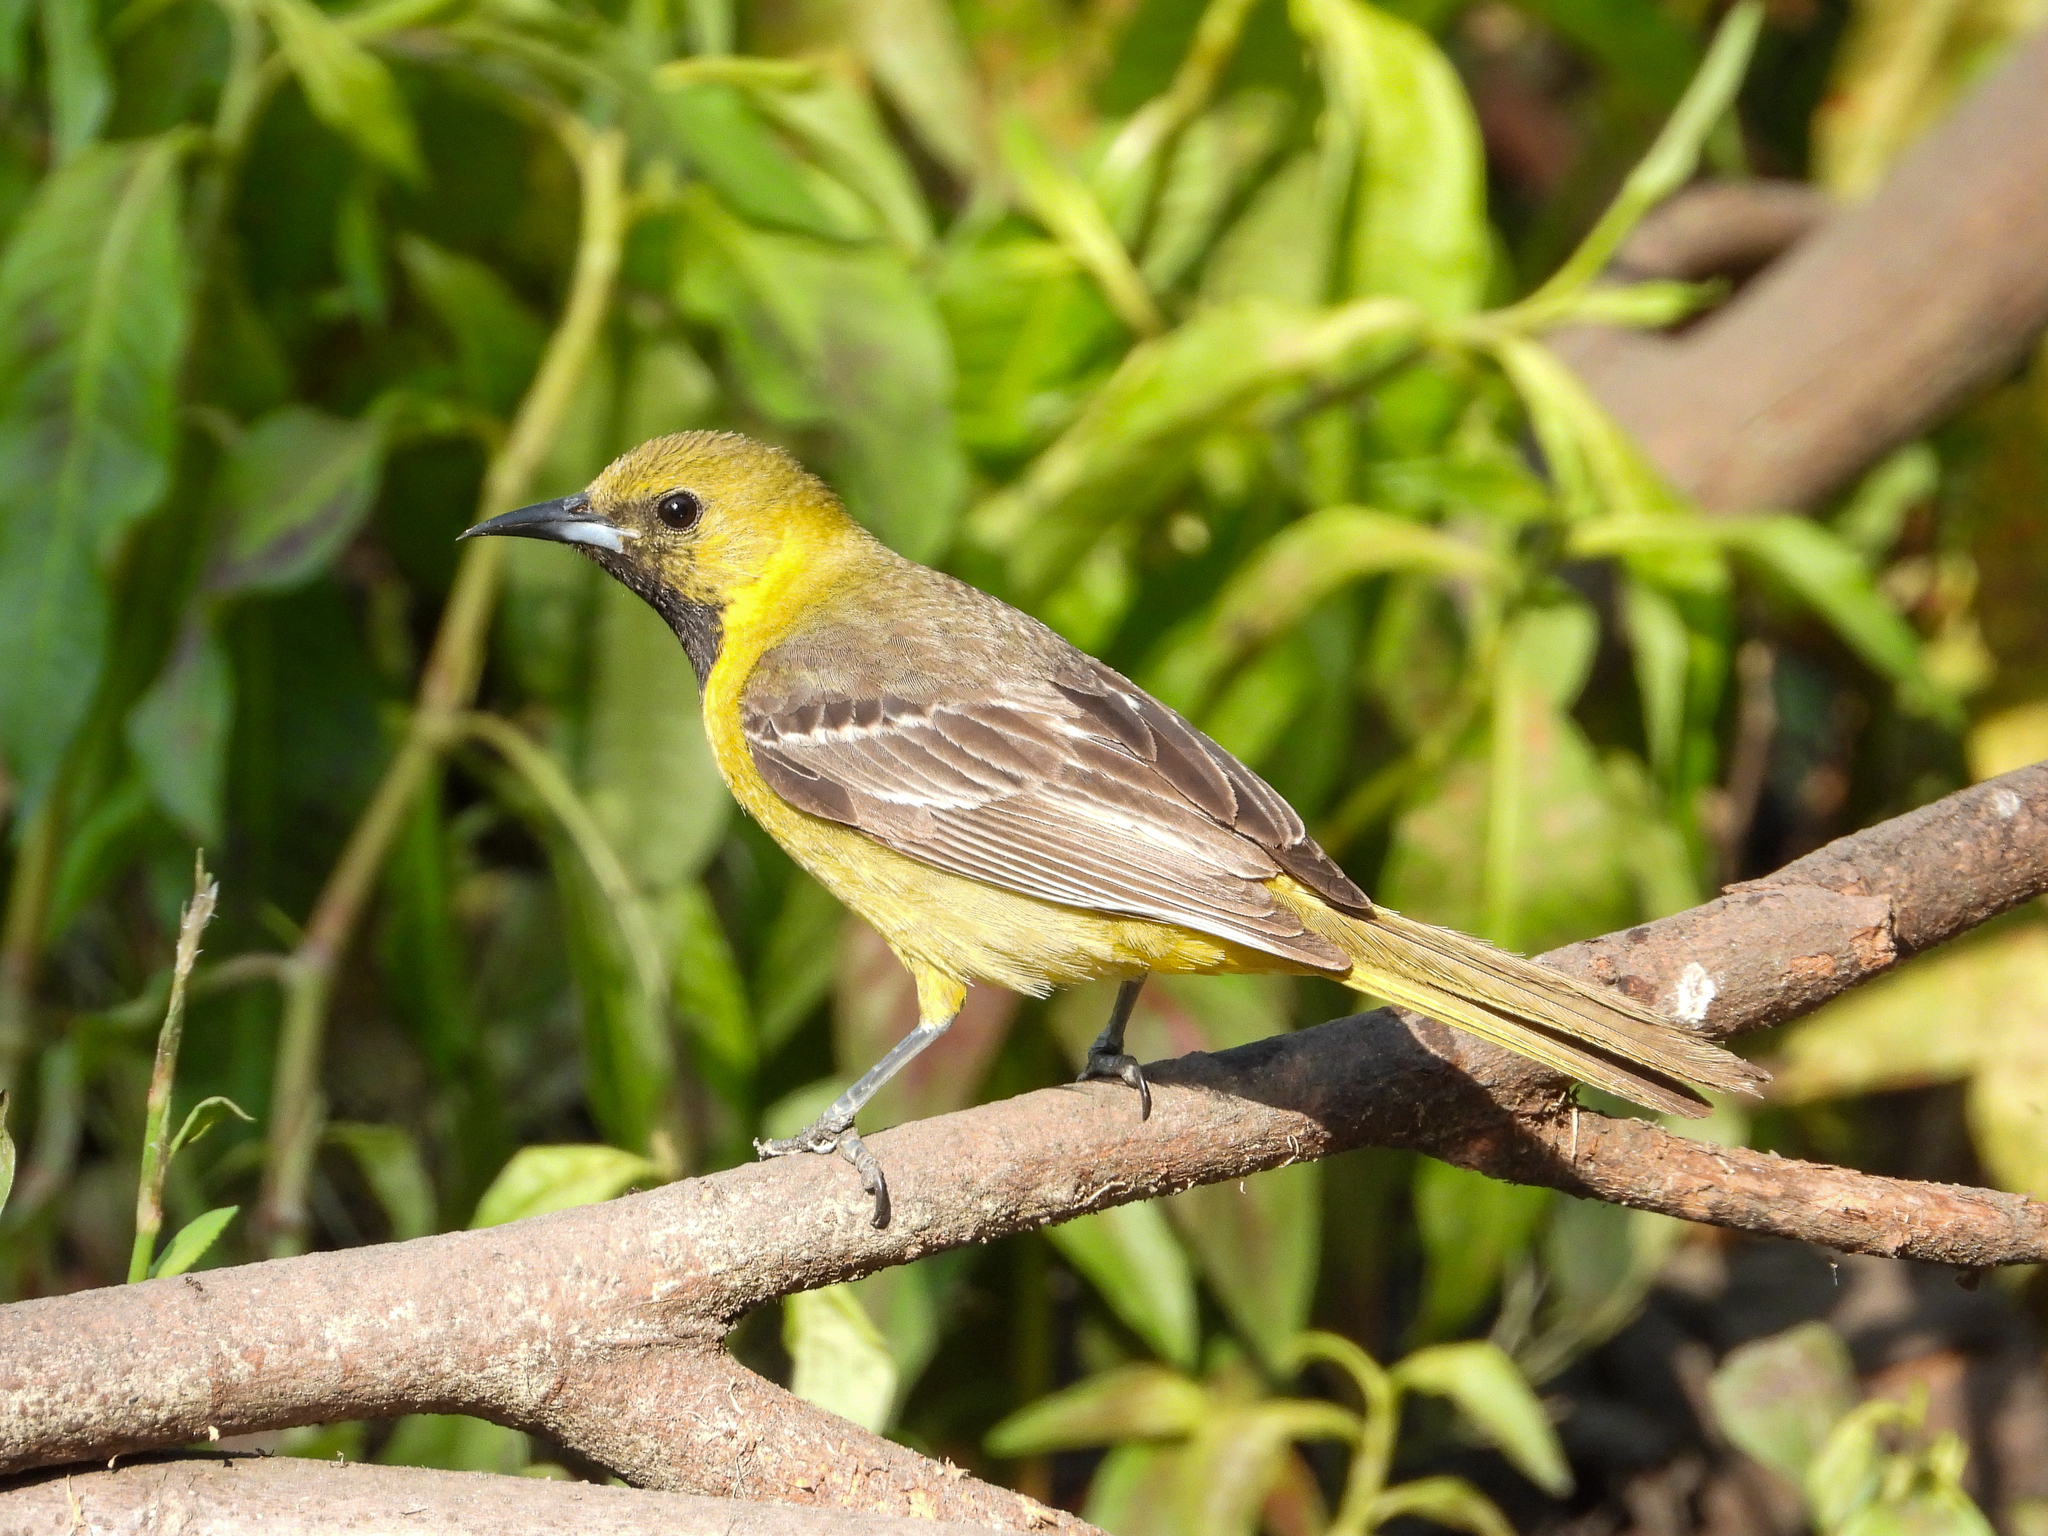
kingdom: Animalia
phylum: Chordata
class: Aves
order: Passeriformes
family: Icteridae
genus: Icterus
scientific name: Icterus cucullatus
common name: Hooded oriole
